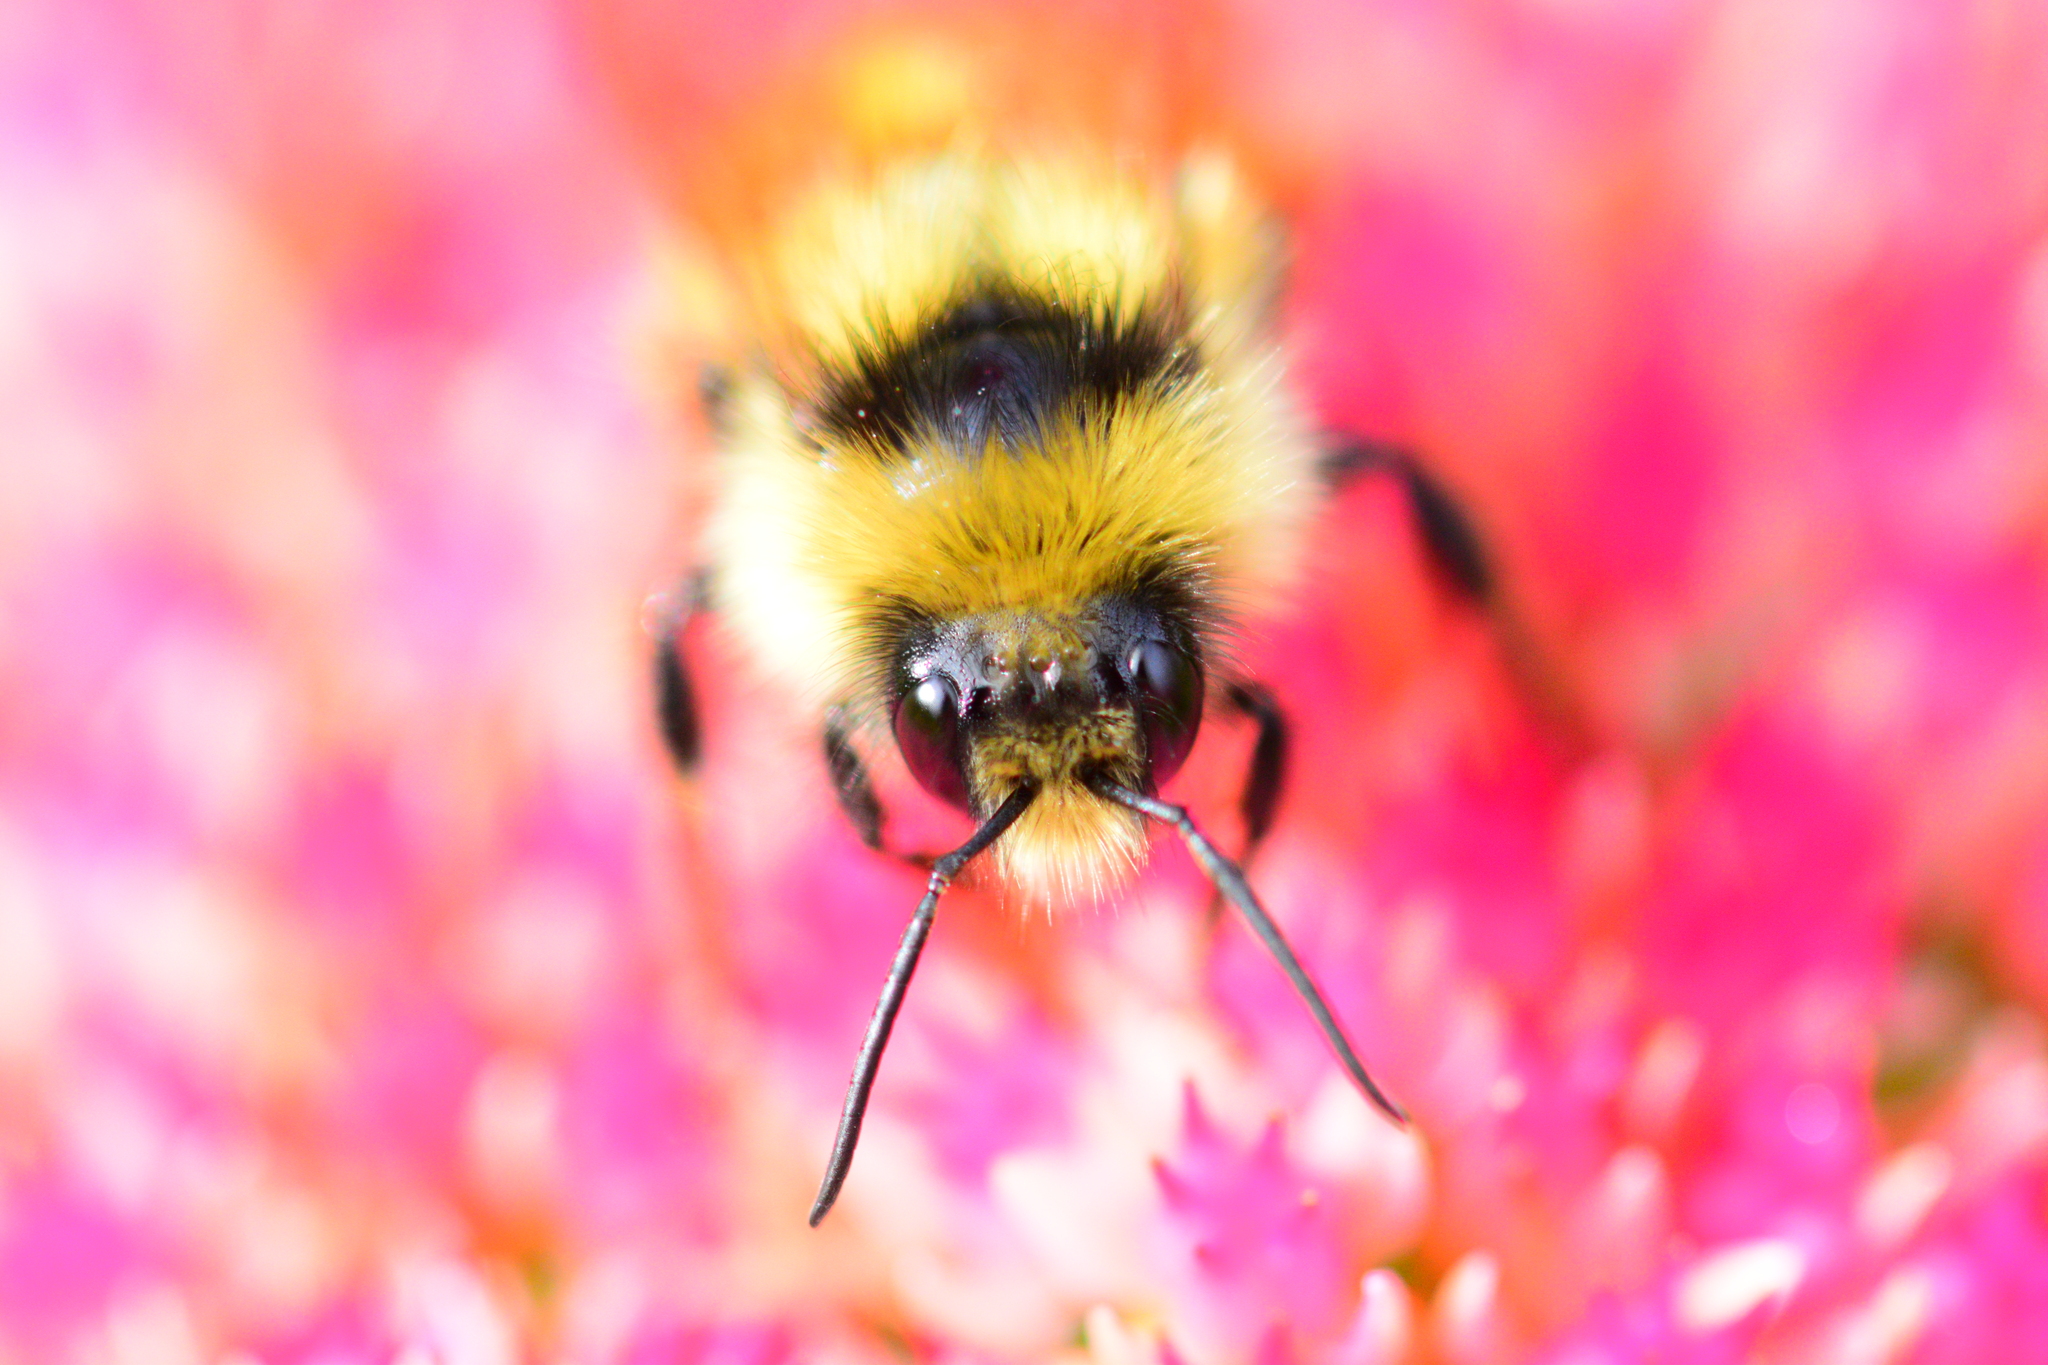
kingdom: Animalia
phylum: Arthropoda
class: Insecta
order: Hymenoptera
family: Apidae
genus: Bombus
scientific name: Bombus ternarius
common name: Tri-colored bumble bee
